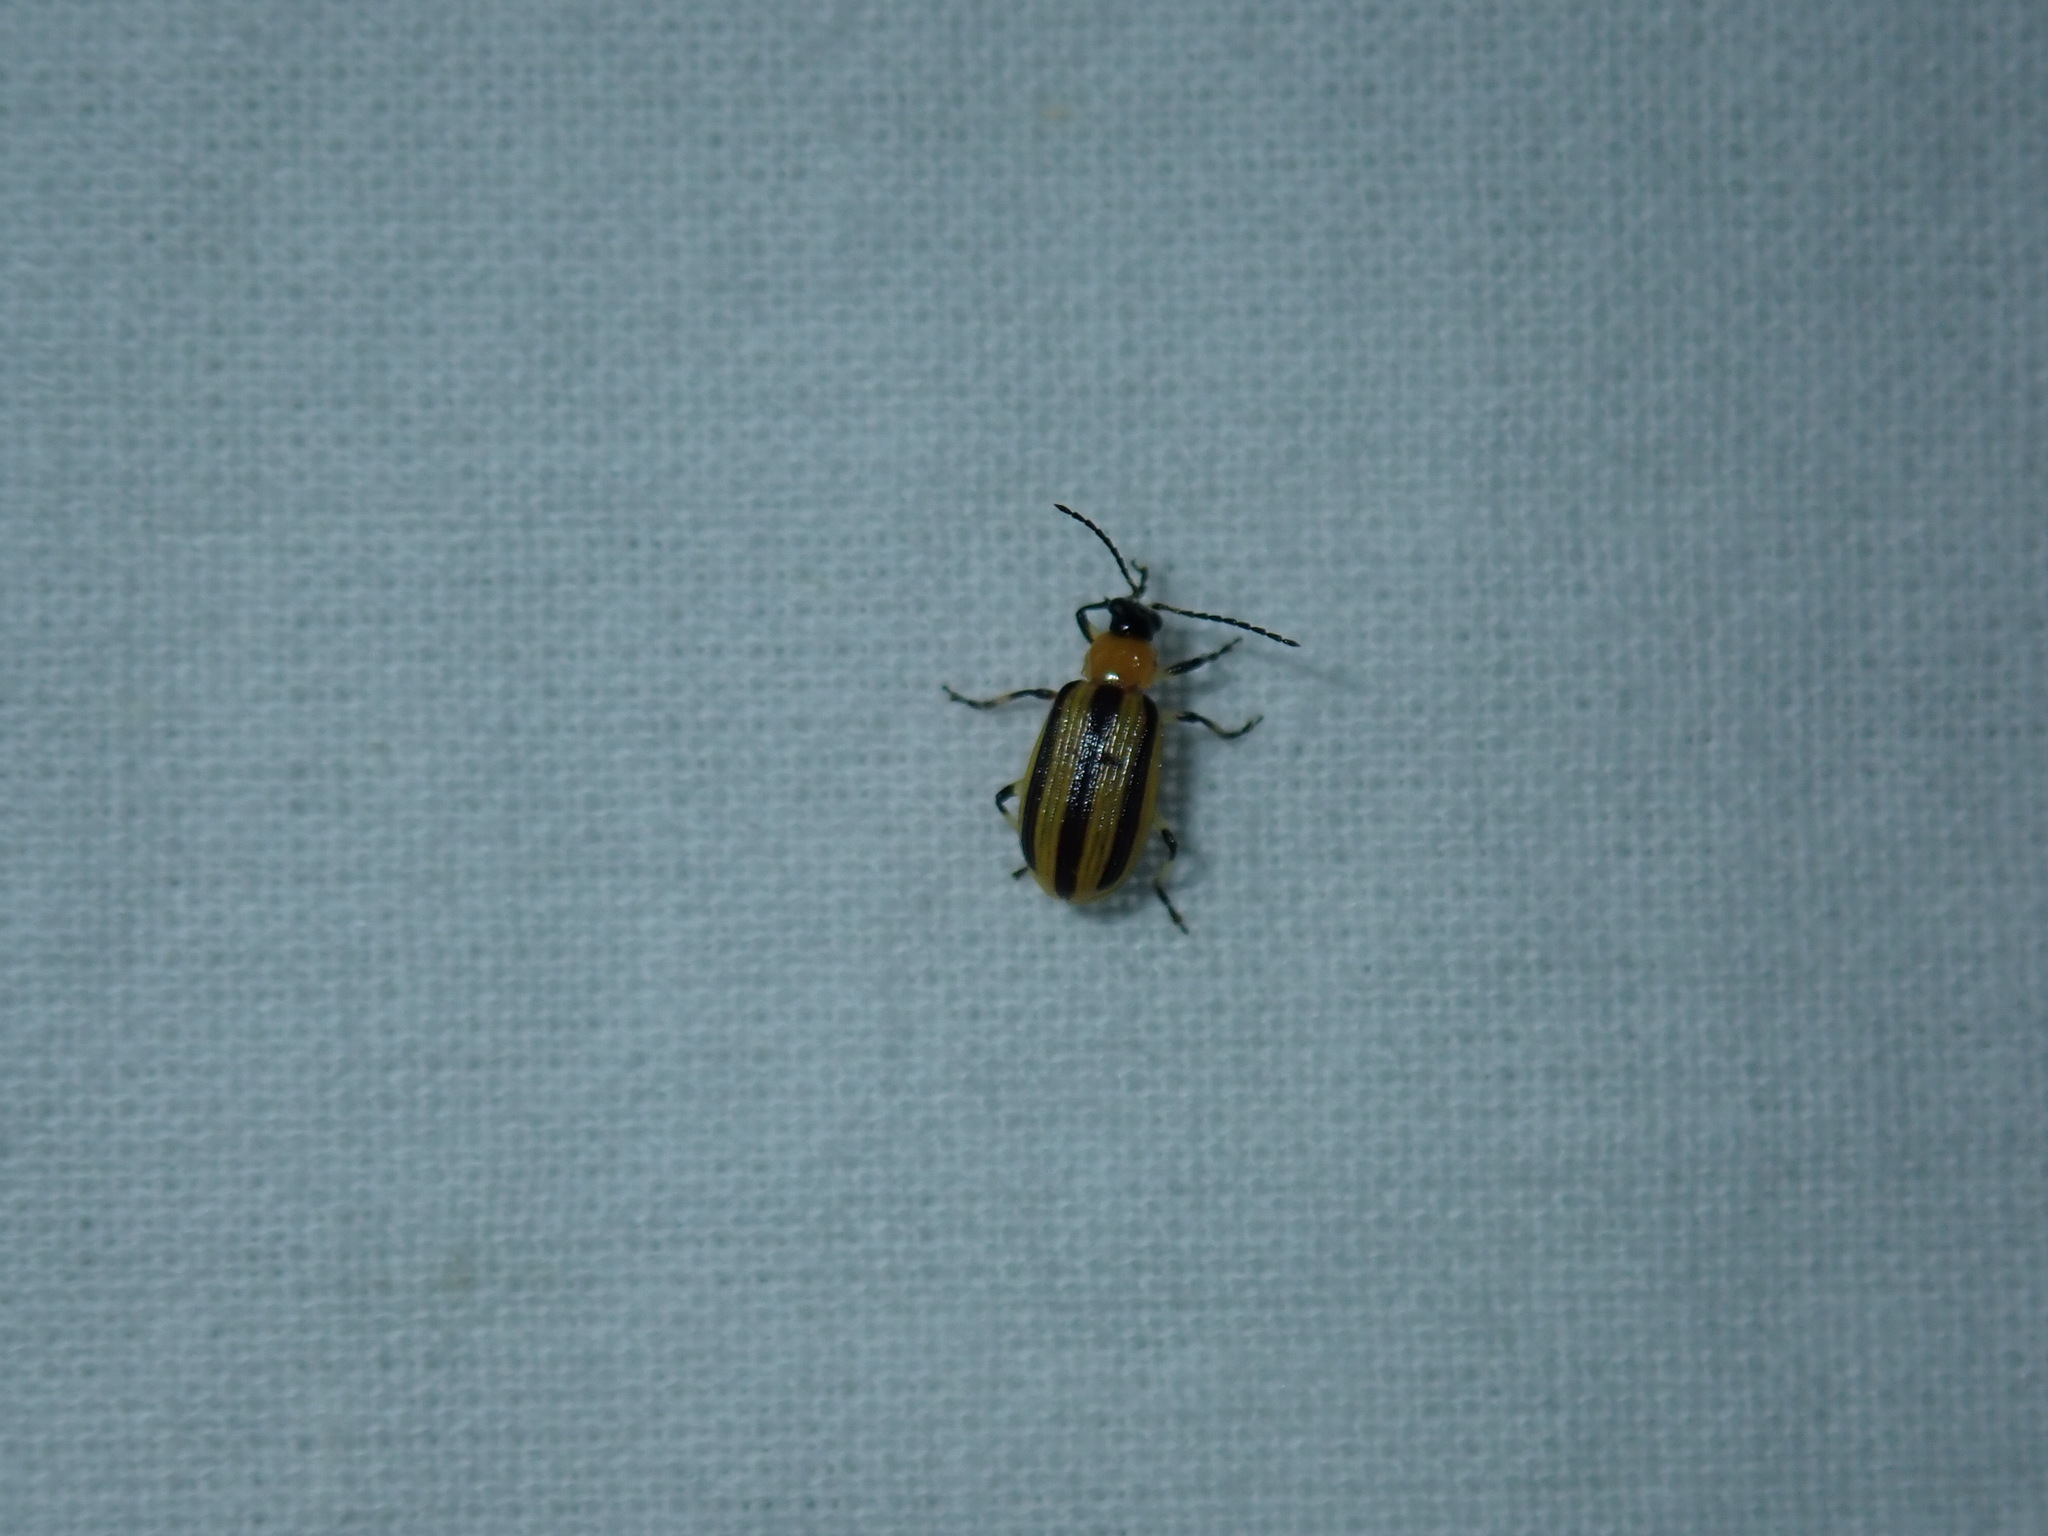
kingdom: Animalia
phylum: Arthropoda
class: Insecta
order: Coleoptera
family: Chrysomelidae
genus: Acalymma
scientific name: Acalymma vittatum
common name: Striped cucumber beetle
